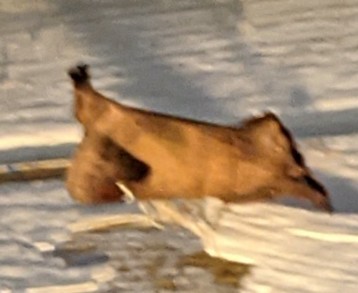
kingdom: Animalia
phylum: Arthropoda
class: Insecta
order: Lepidoptera
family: Notodontidae
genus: Clostera
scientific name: Clostera albosigma
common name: Sigmoid prominent
